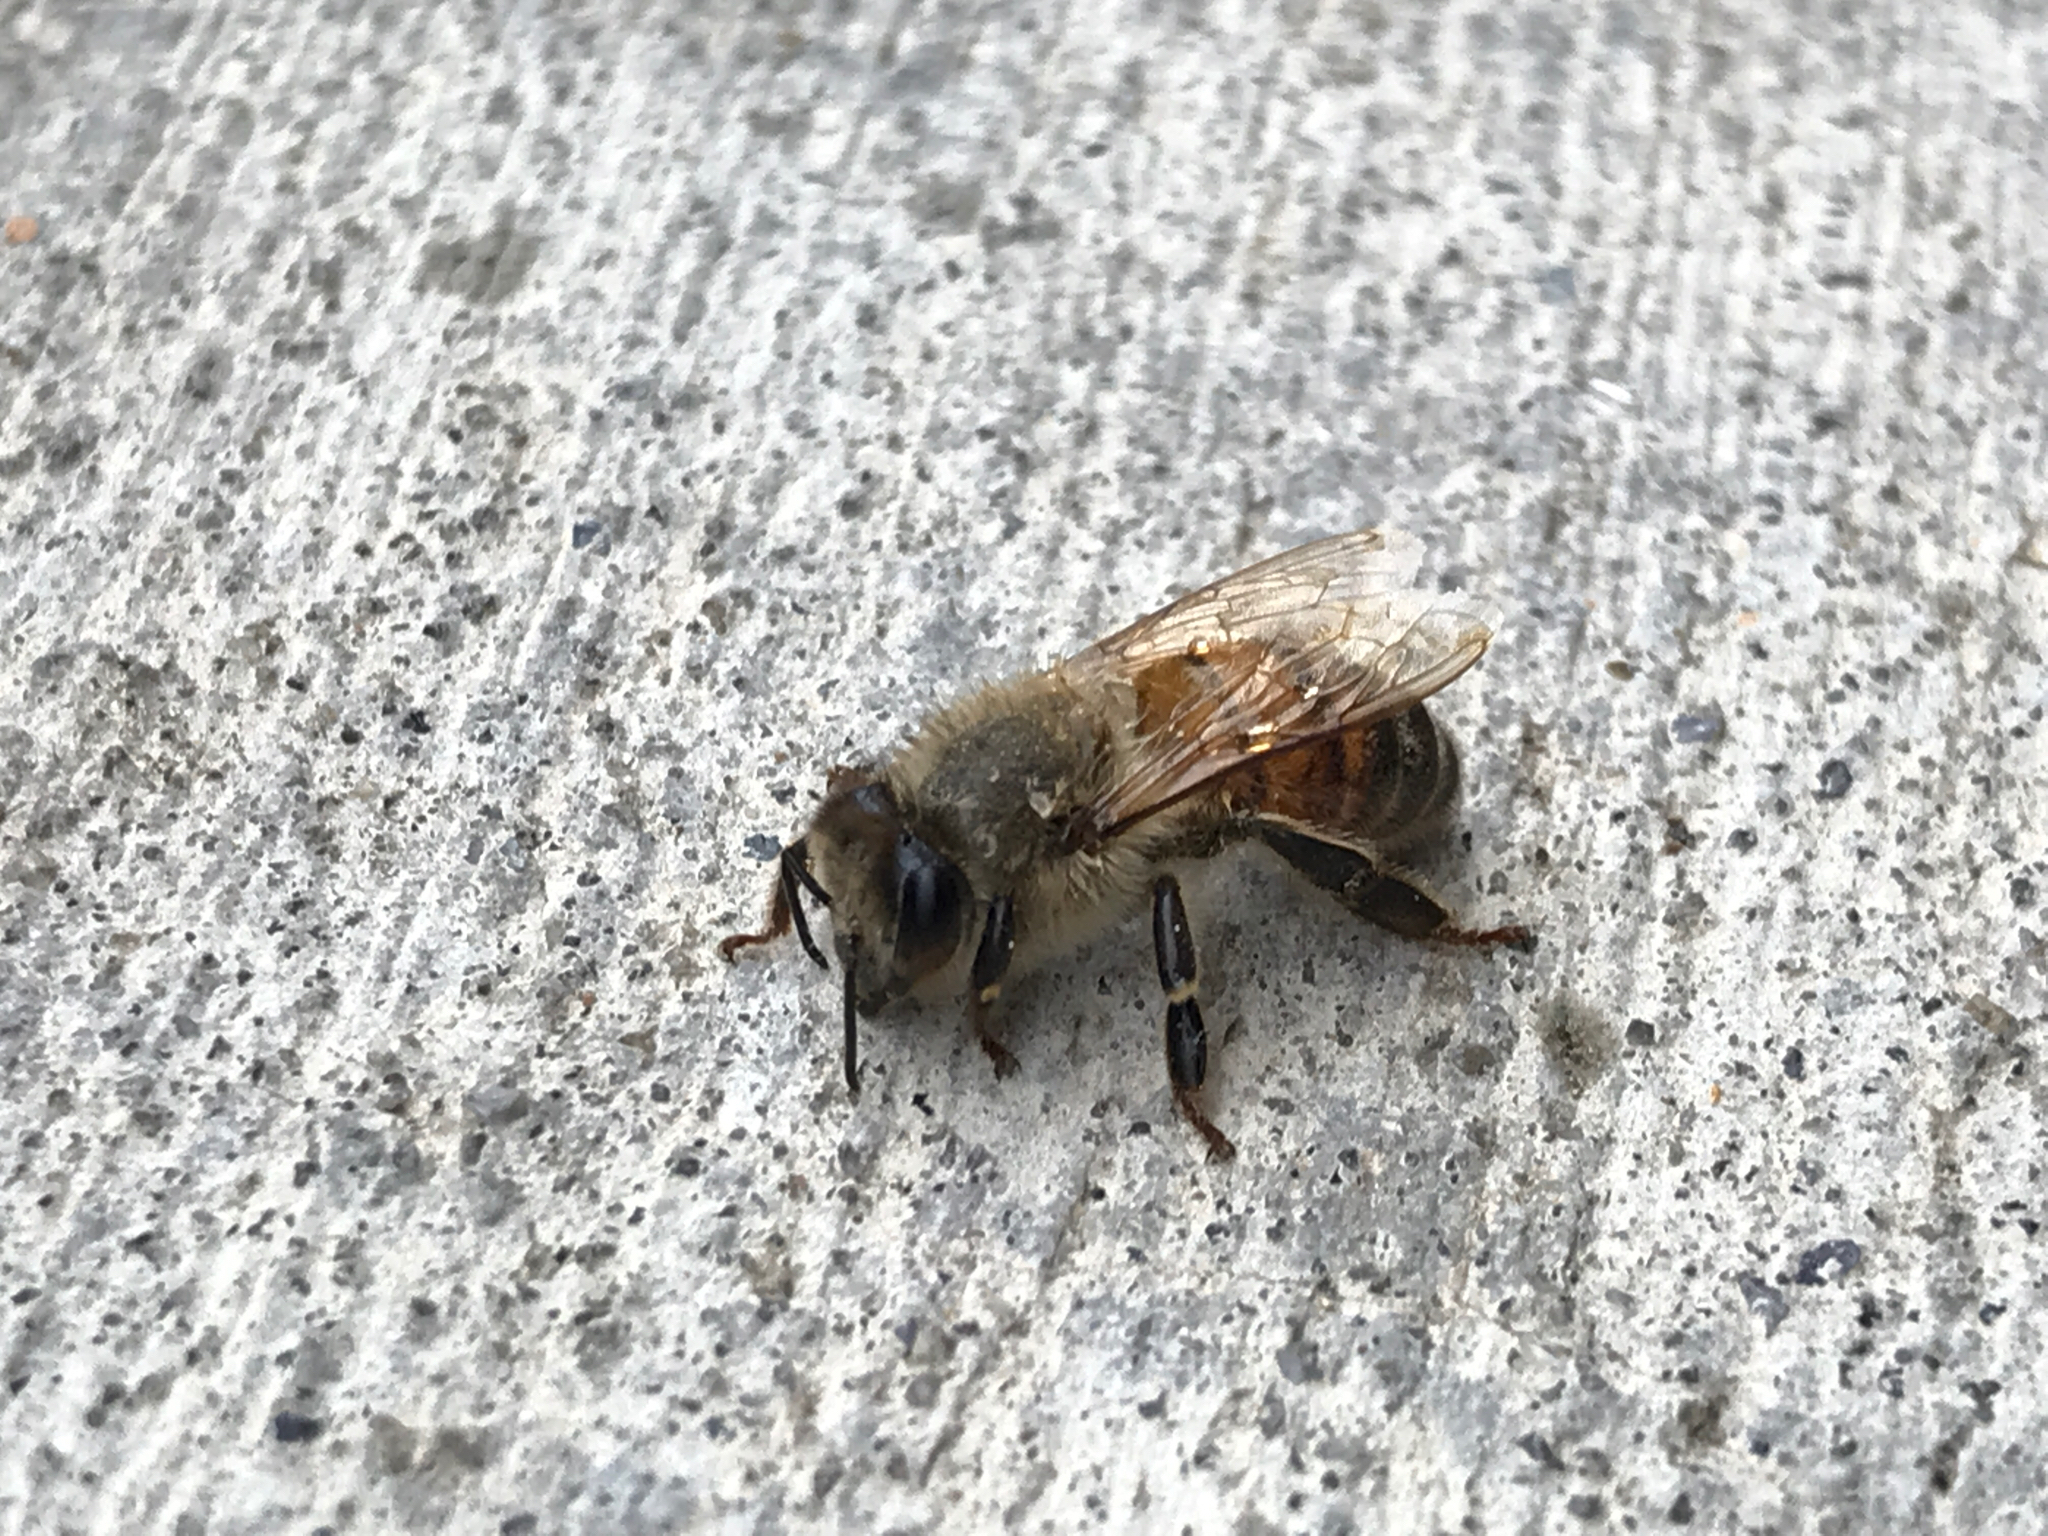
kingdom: Animalia
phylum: Arthropoda
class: Insecta
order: Hymenoptera
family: Apidae
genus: Apis
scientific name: Apis mellifera
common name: Honey bee
